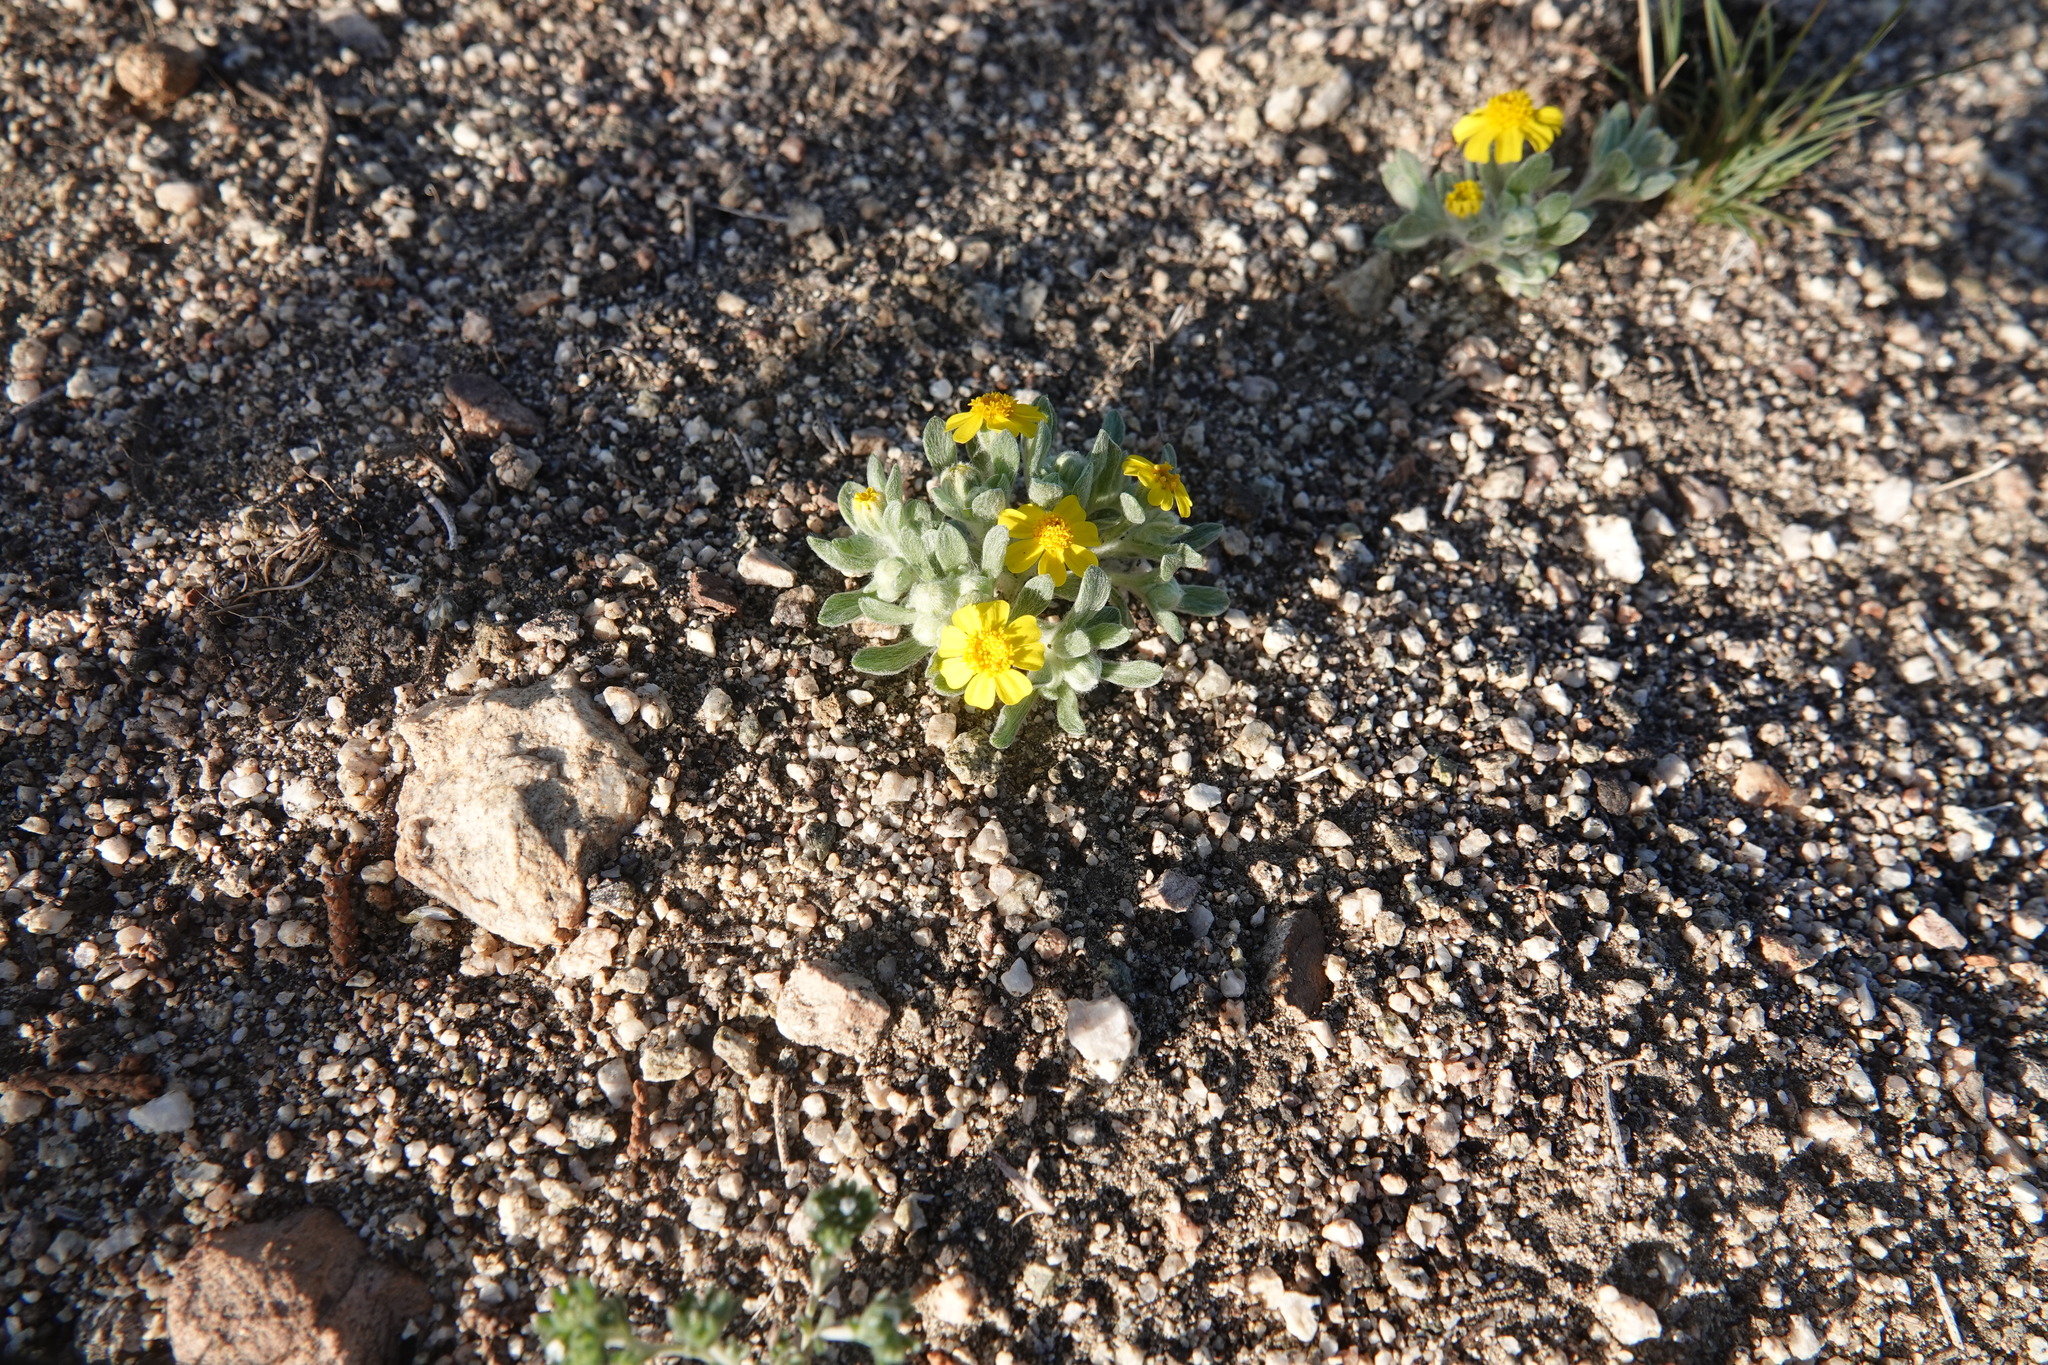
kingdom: Plantae
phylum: Tracheophyta
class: Magnoliopsida
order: Asterales
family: Asteraceae
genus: Eriophyllum
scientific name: Eriophyllum wallacei
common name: Wallace's woolly daisy
